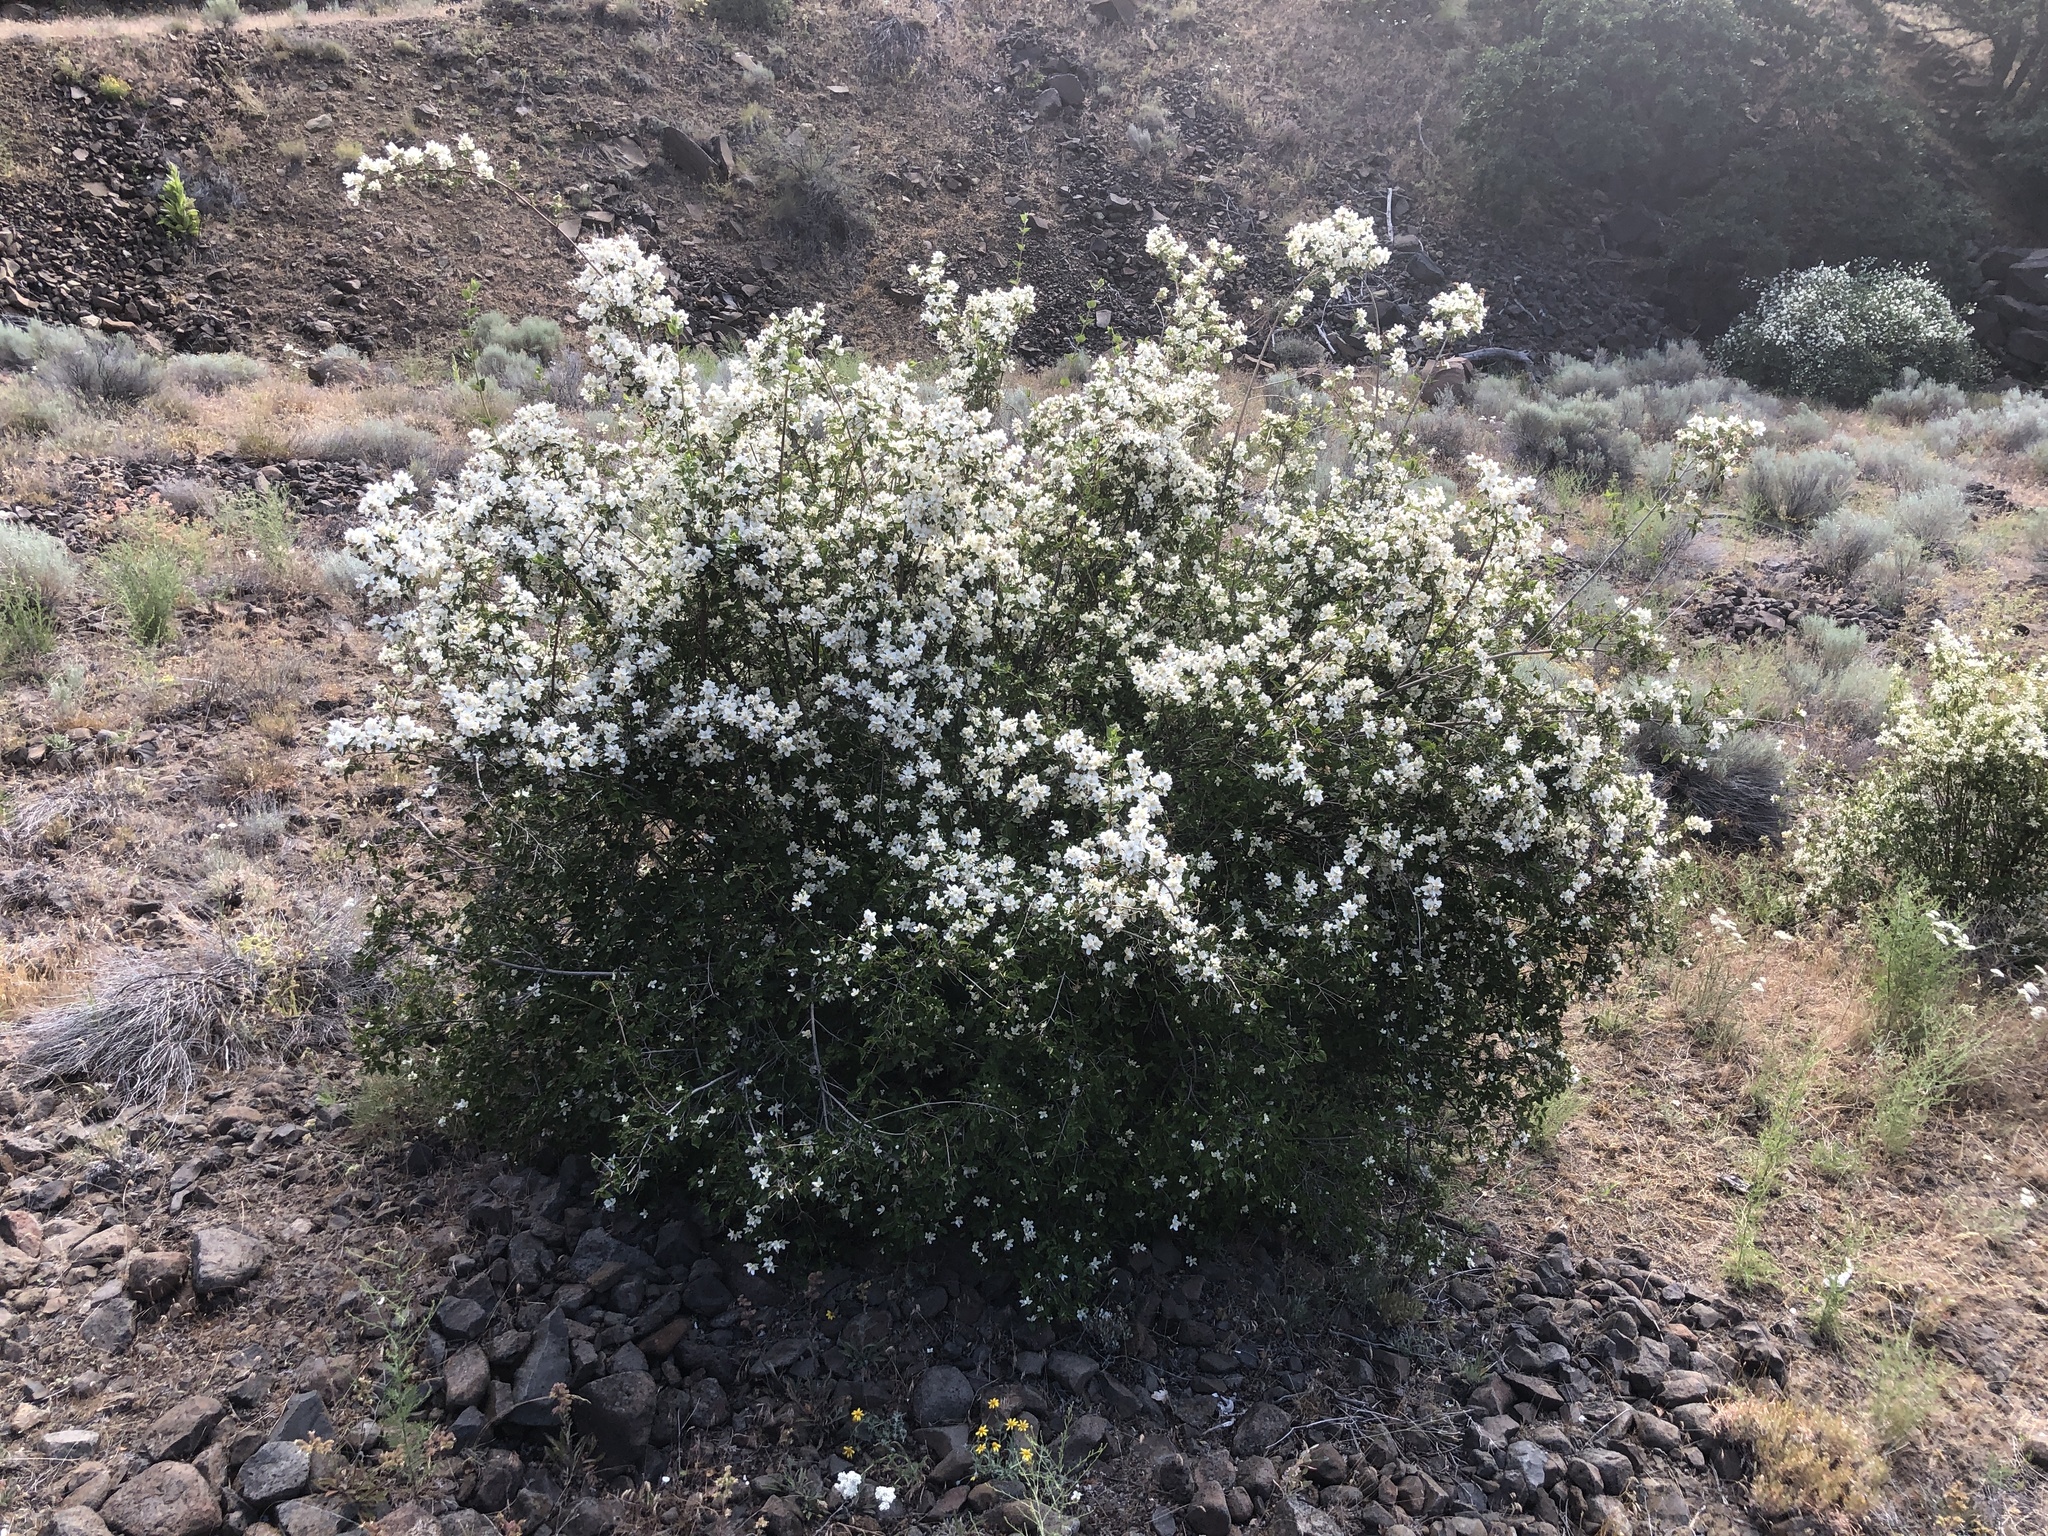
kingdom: Plantae
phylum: Tracheophyta
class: Magnoliopsida
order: Cornales
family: Hydrangeaceae
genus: Philadelphus
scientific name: Philadelphus lewisii
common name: Lewis's mock orange
